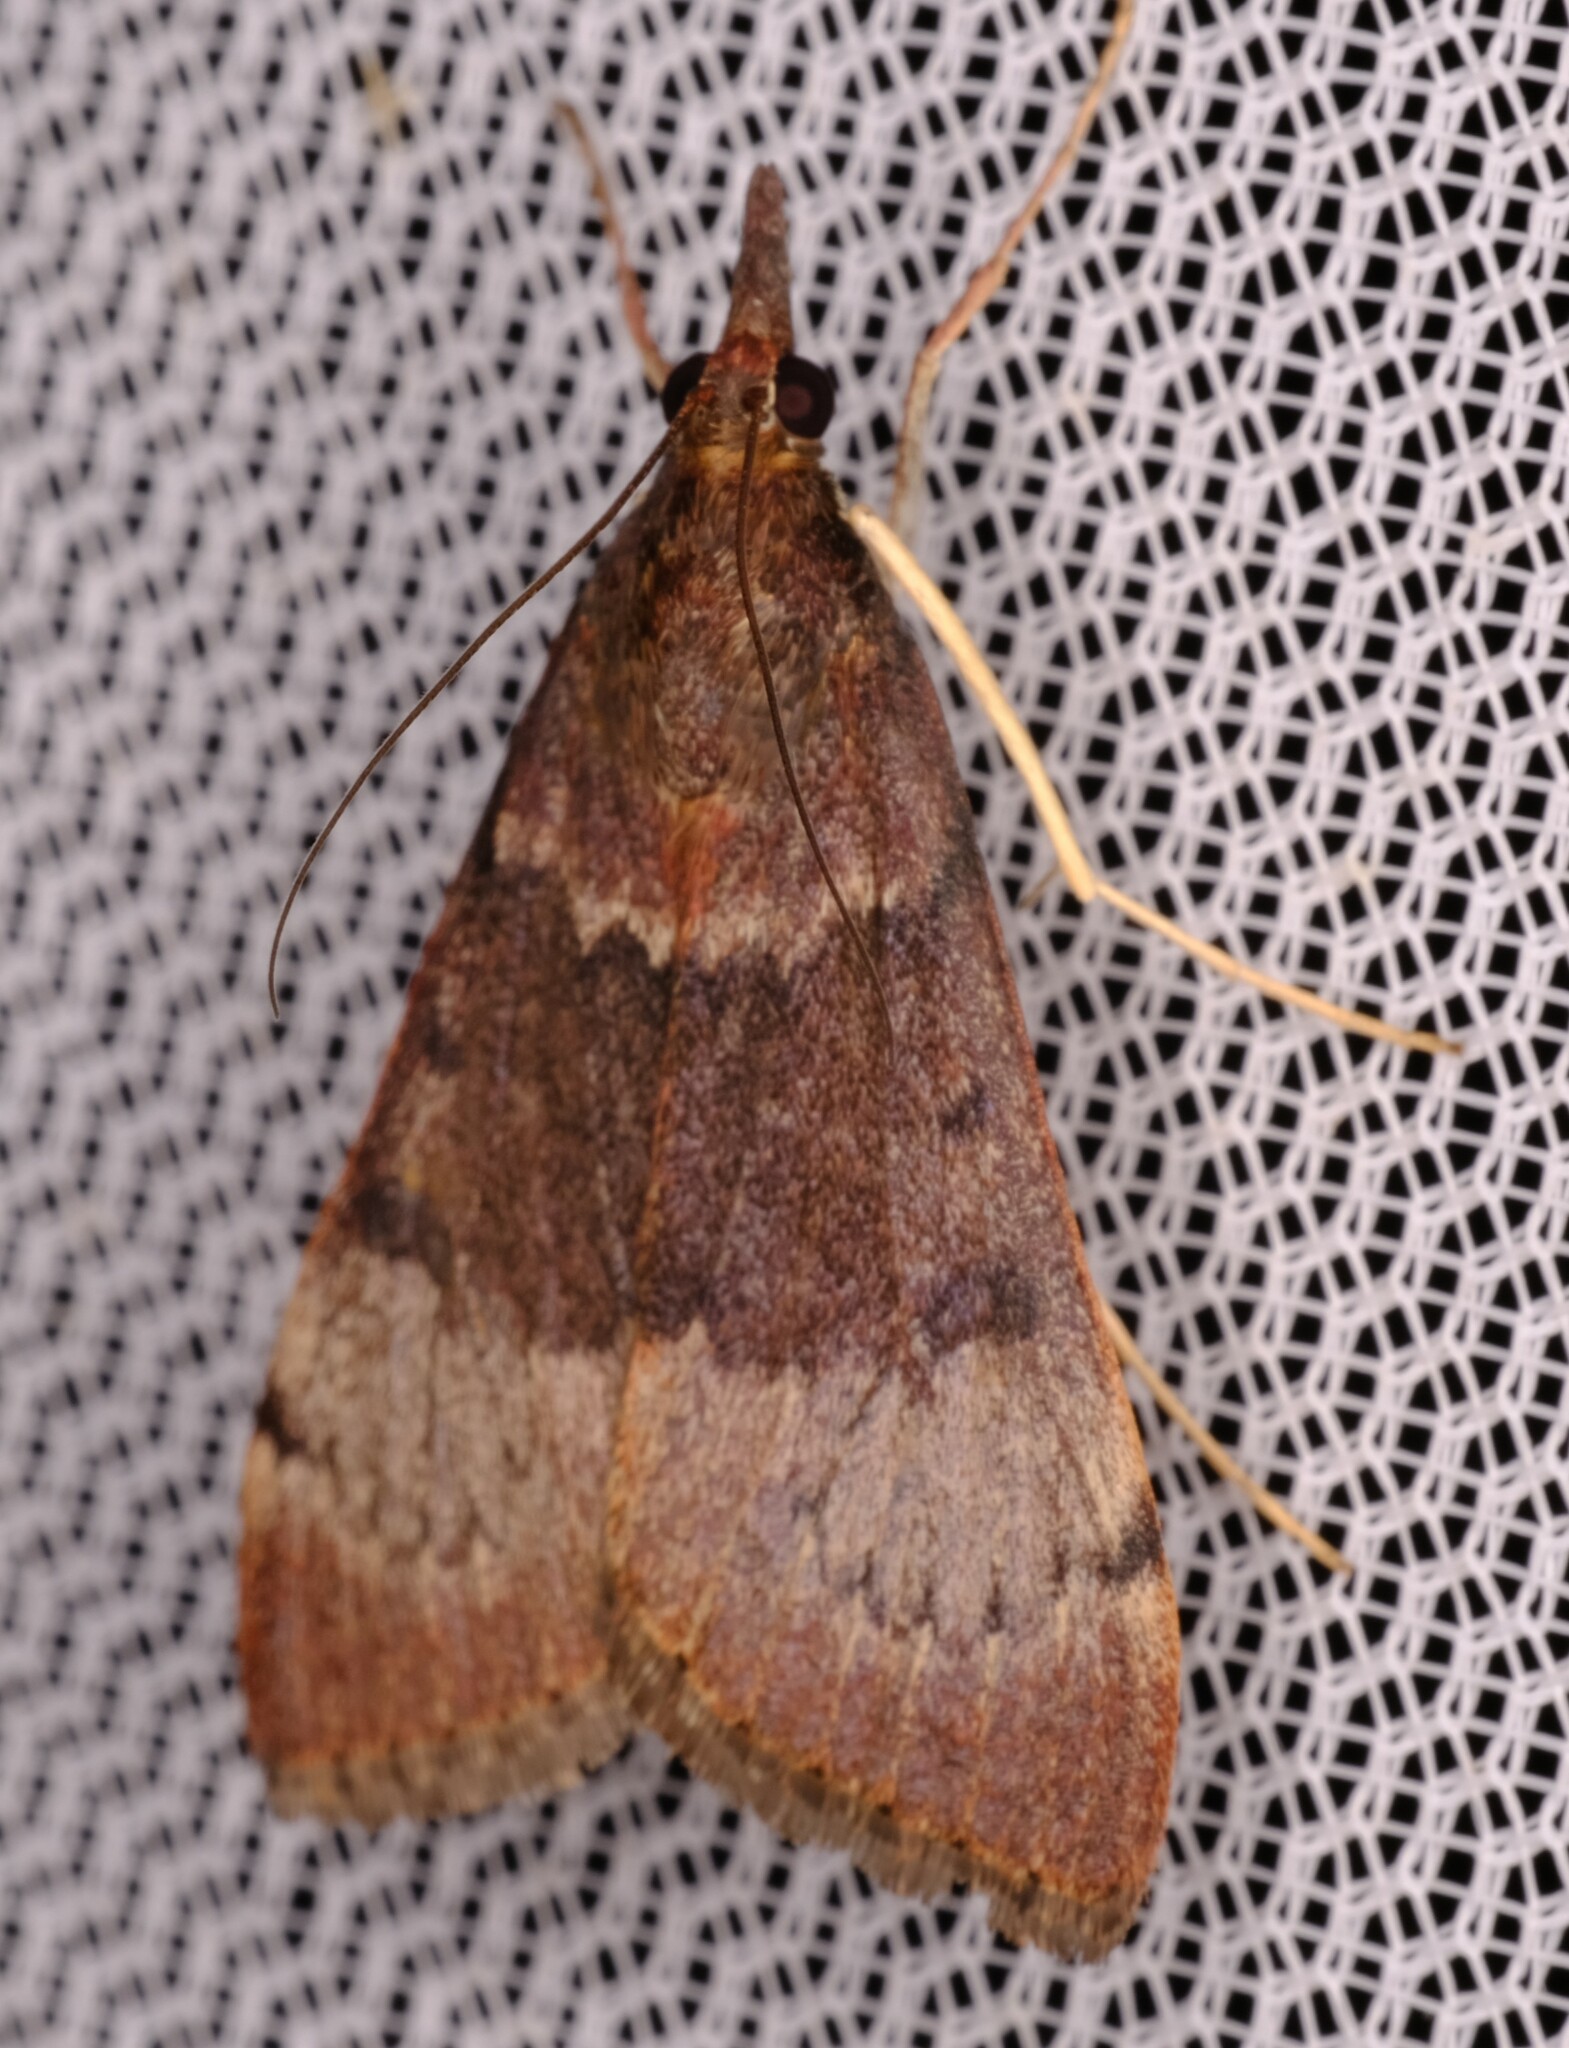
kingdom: Animalia
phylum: Arthropoda
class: Insecta
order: Lepidoptera
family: Crambidae
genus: Uresiphita
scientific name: Uresiphita ornithopteralis
